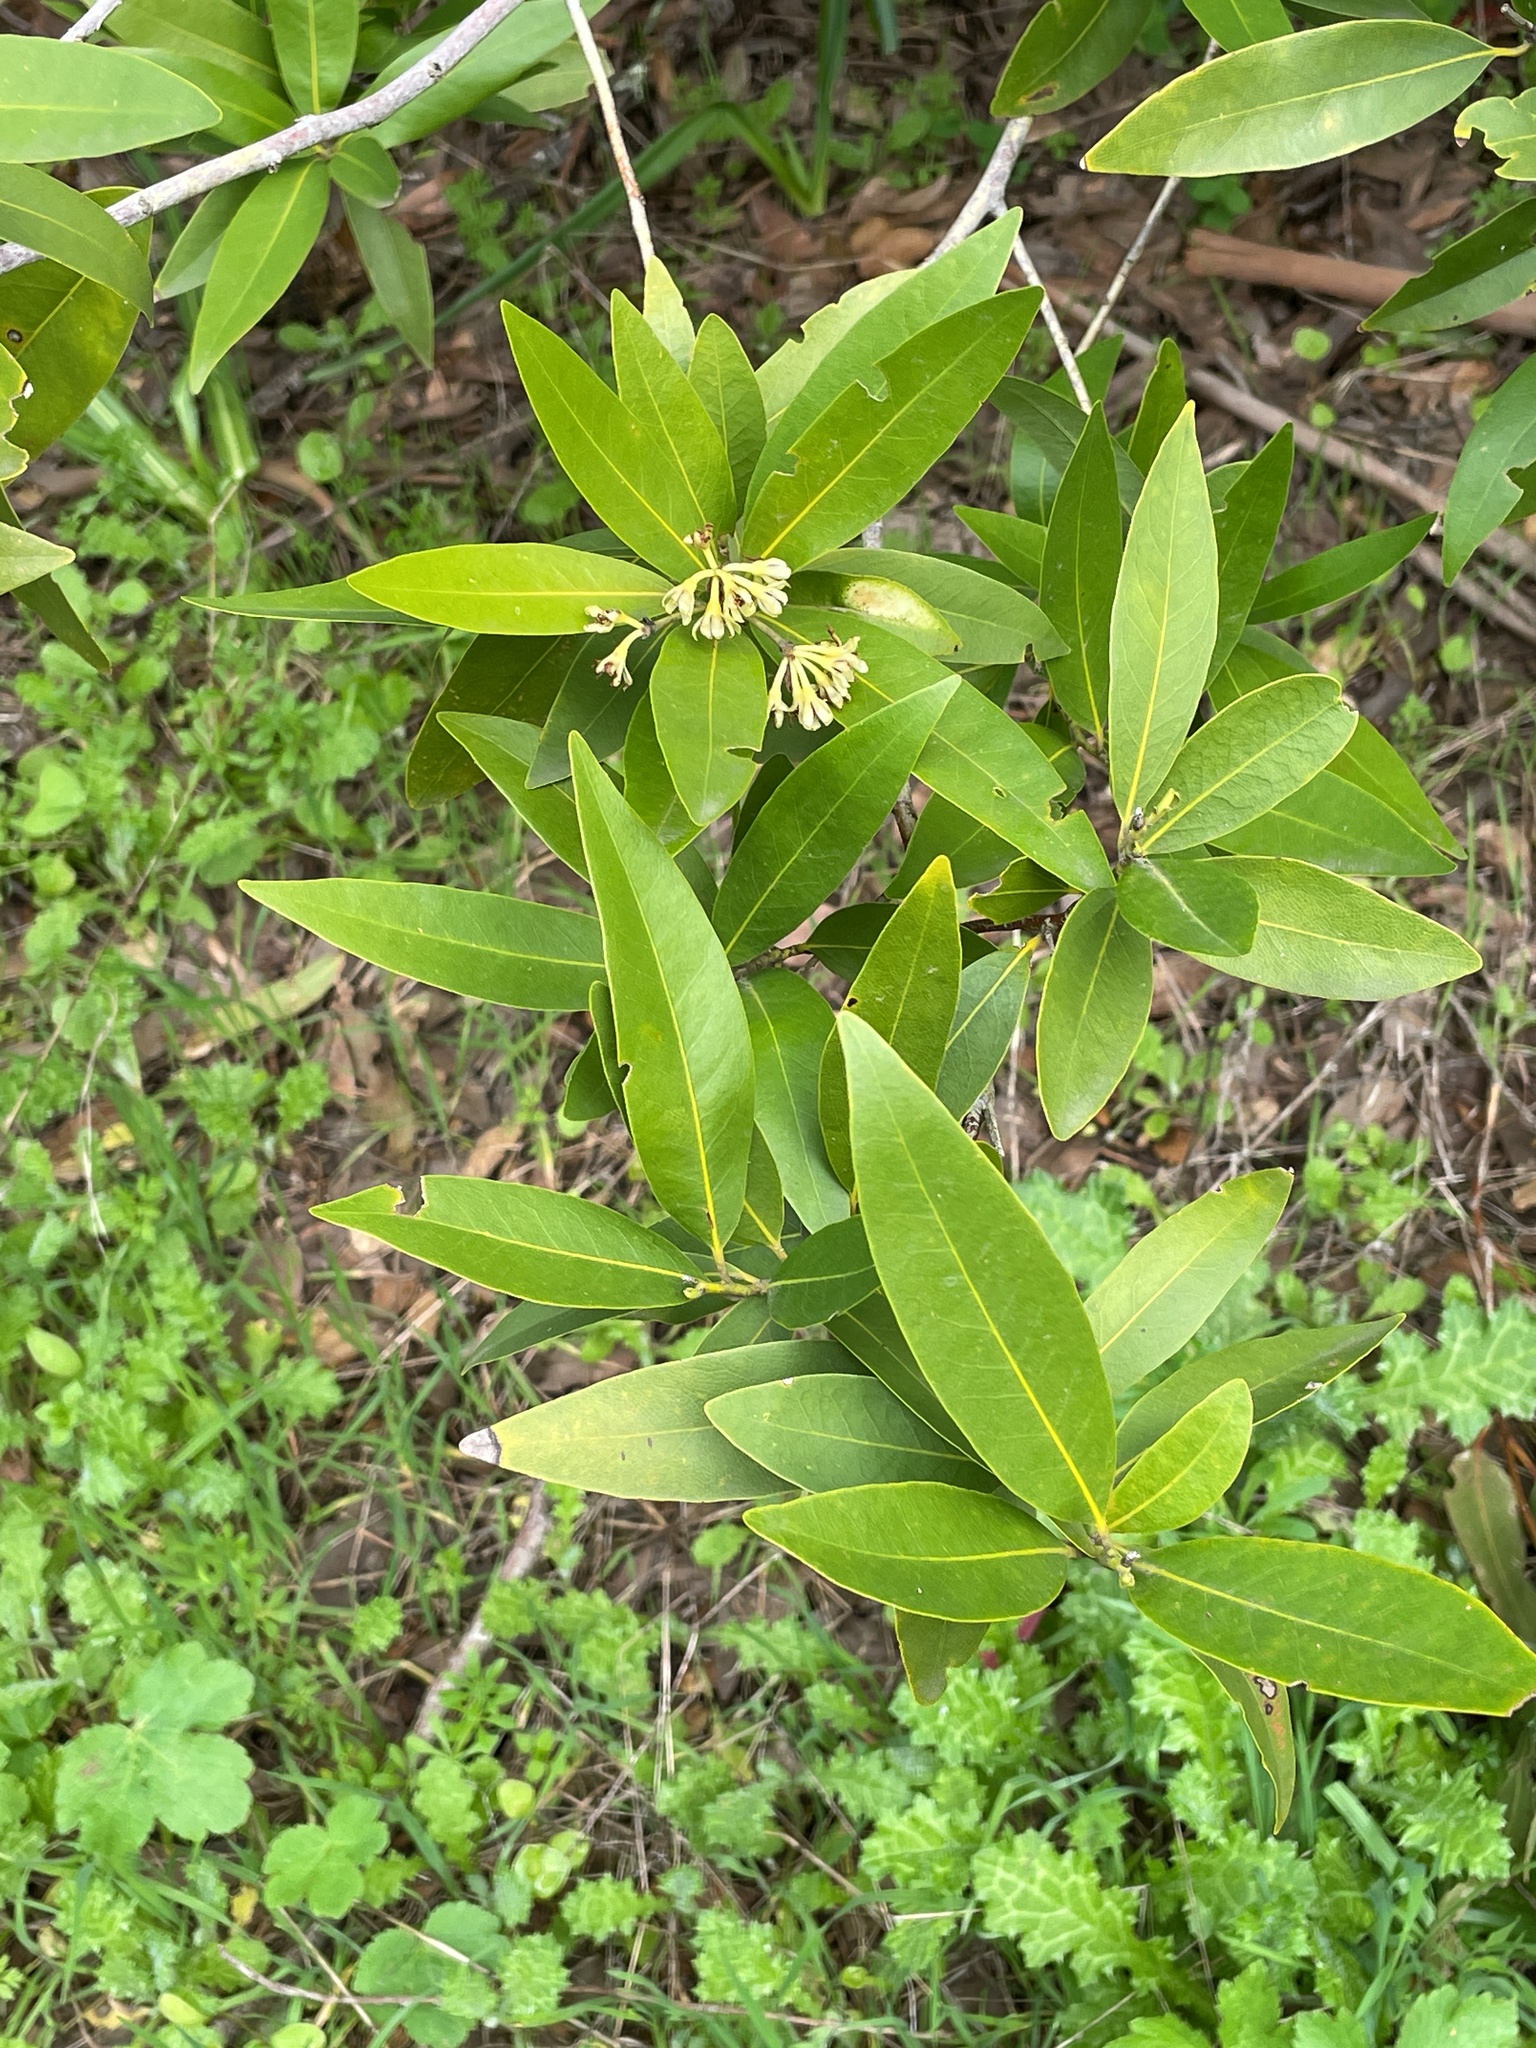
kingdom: Plantae
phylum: Tracheophyta
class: Magnoliopsida
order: Laurales
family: Lauraceae
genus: Umbellularia
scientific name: Umbellularia californica
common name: California bay
